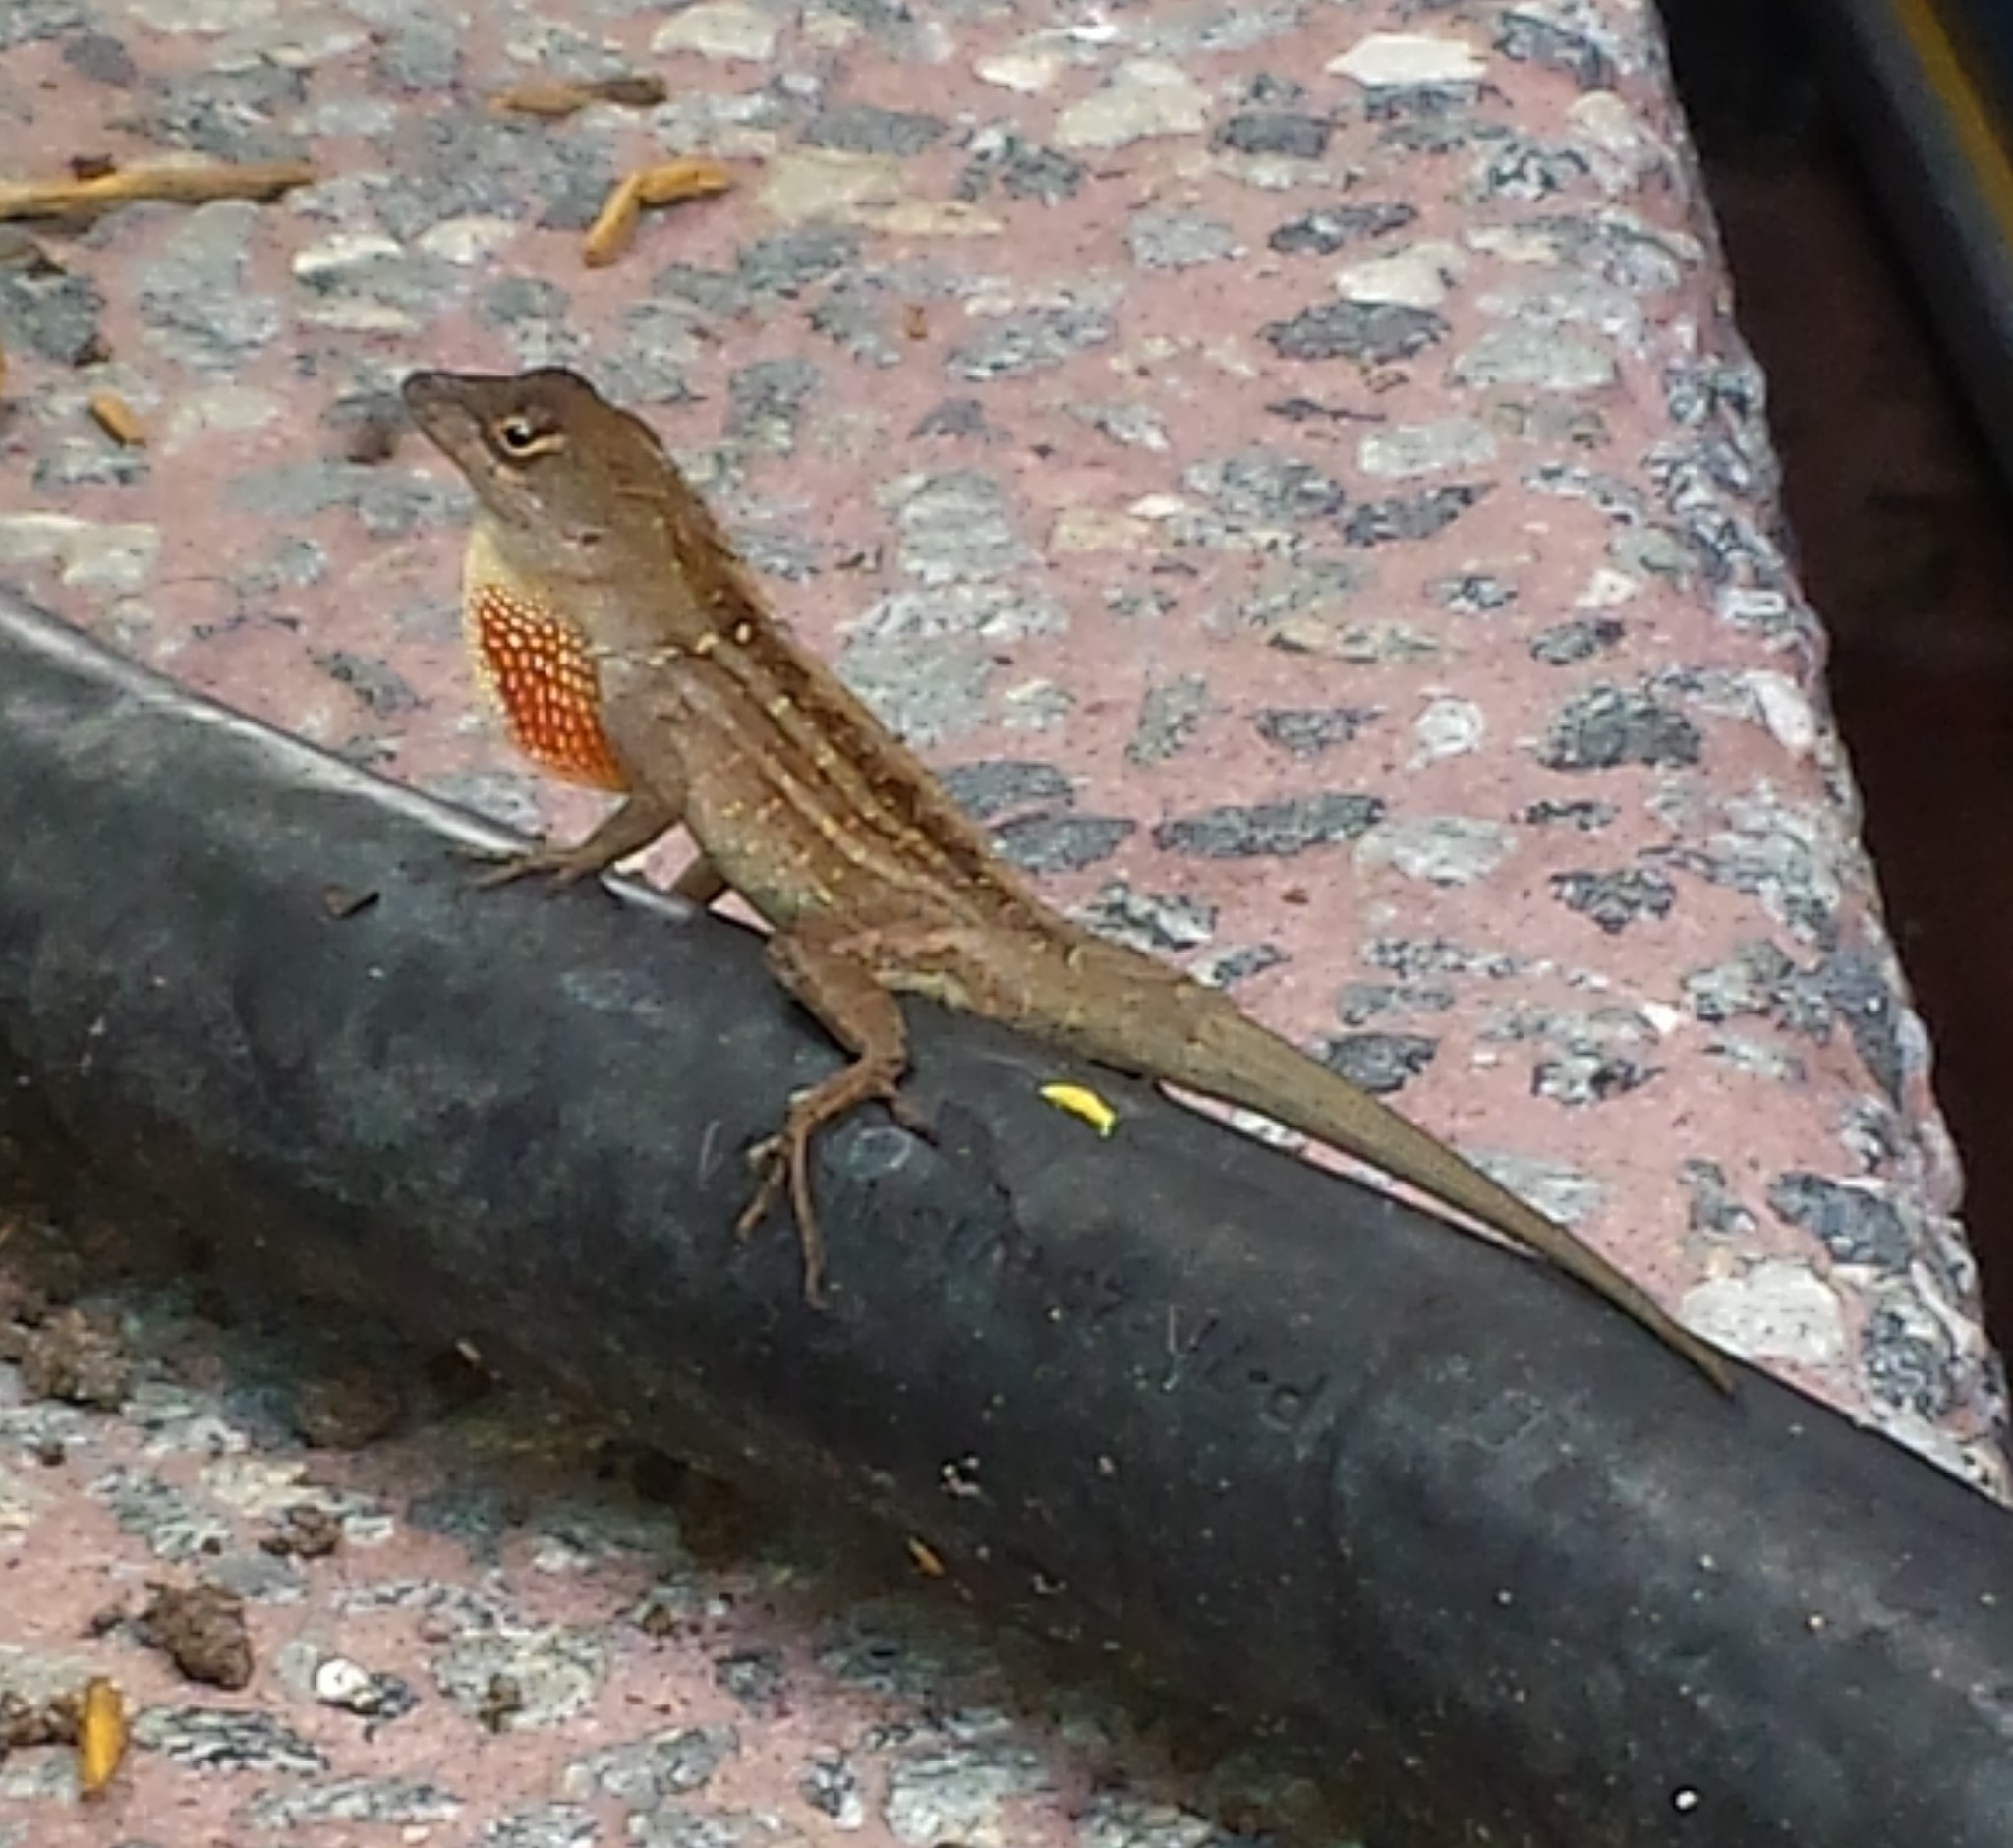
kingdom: Animalia
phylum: Chordata
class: Squamata
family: Dactyloidae
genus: Anolis
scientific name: Anolis sagrei
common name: Brown anole
